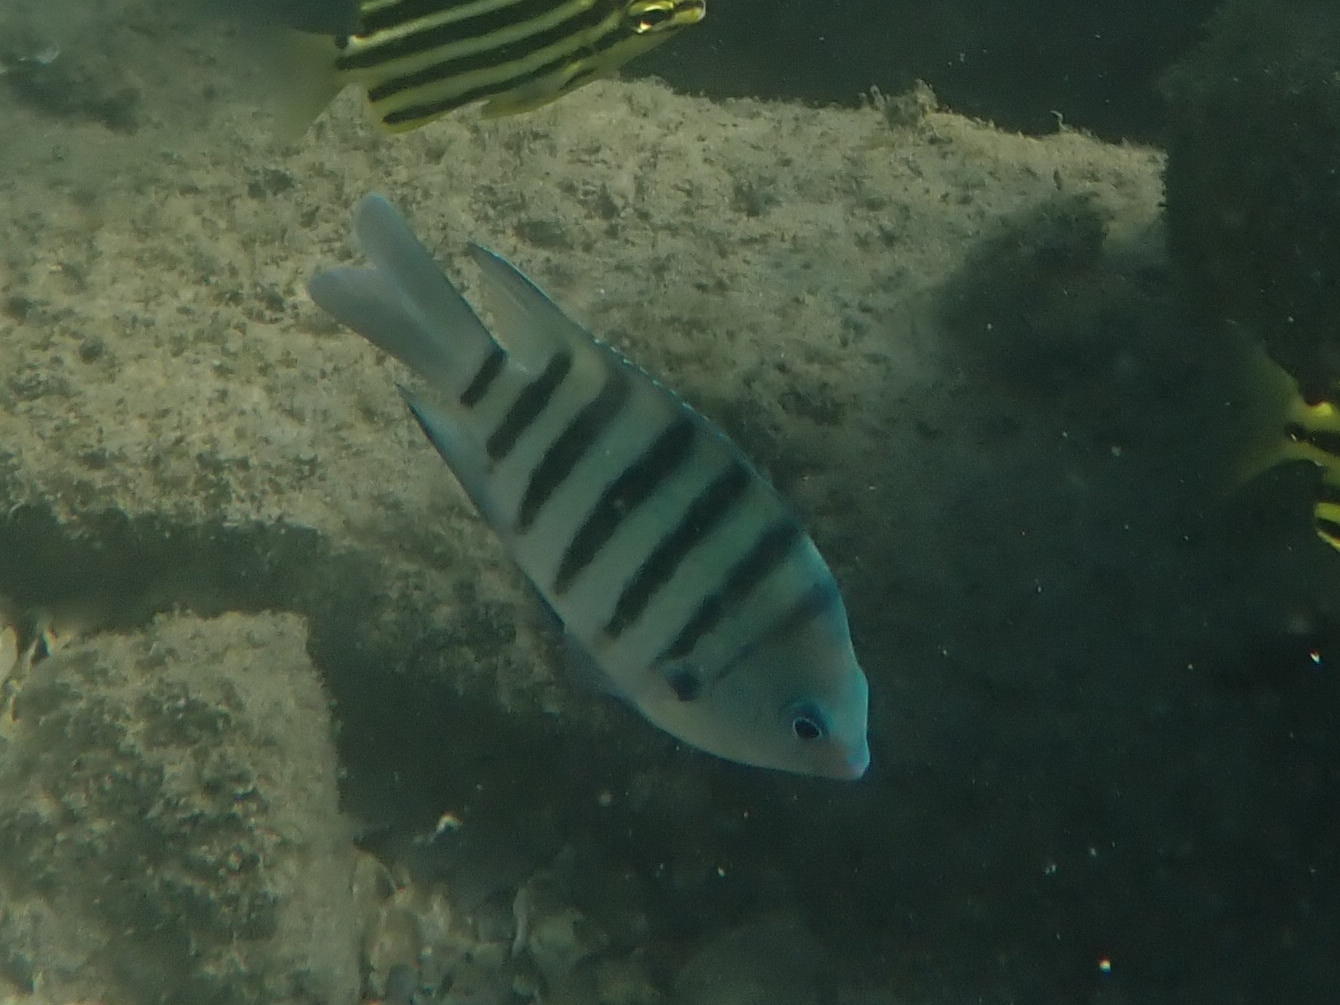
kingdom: Animalia
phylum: Chordata
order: Perciformes
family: Pomacentridae
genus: Abudefduf
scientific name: Abudefduf bengalensis
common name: Bengal sergeant
